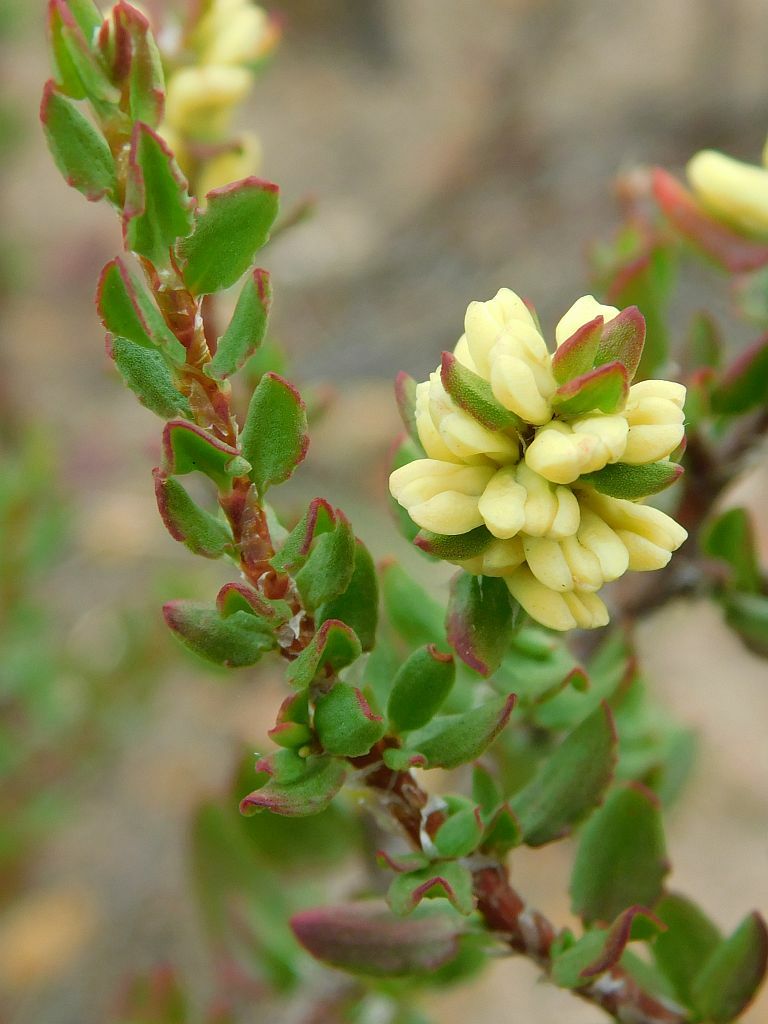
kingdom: Plantae
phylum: Tracheophyta
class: Magnoliopsida
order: Caryophyllales
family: Polygonaceae
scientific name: Polygonaceae
